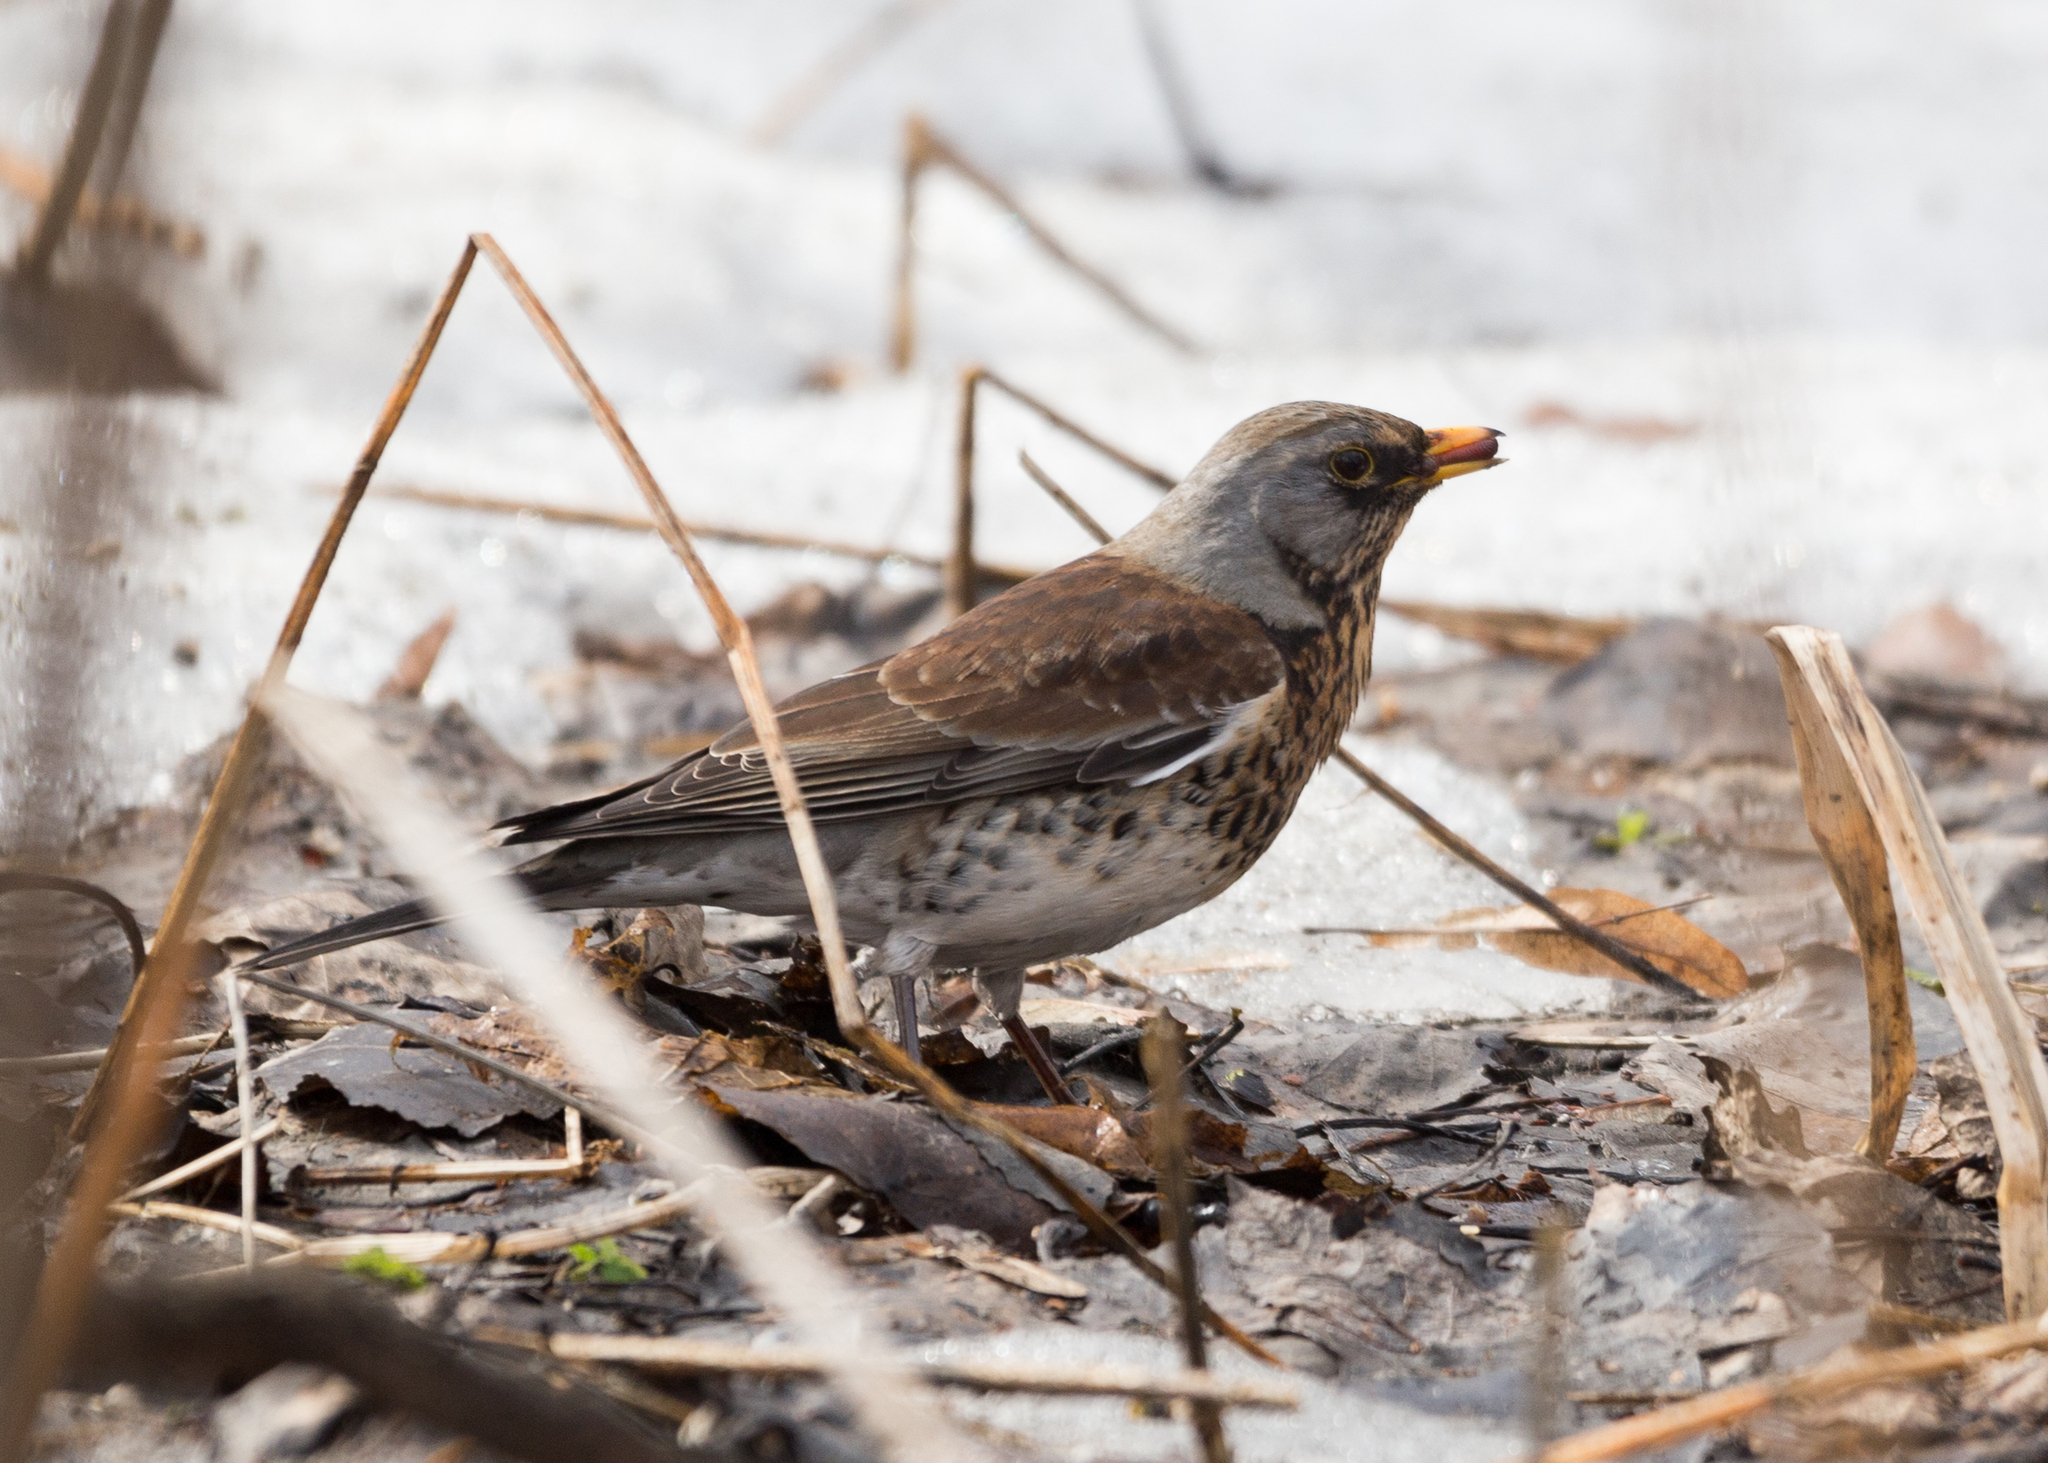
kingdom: Animalia
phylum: Chordata
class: Aves
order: Passeriformes
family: Turdidae
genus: Turdus
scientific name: Turdus pilaris
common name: Fieldfare
